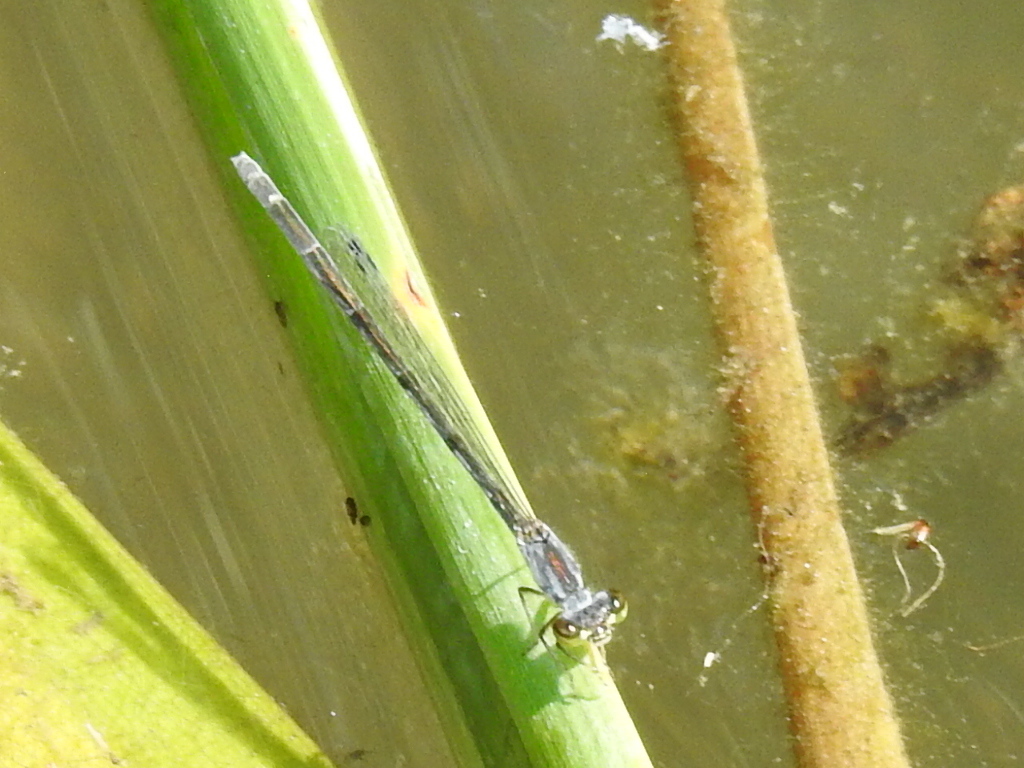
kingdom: Animalia
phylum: Arthropoda
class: Insecta
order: Odonata
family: Coenagrionidae
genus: Ischnura
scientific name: Ischnura posita
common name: Fragile forktail
